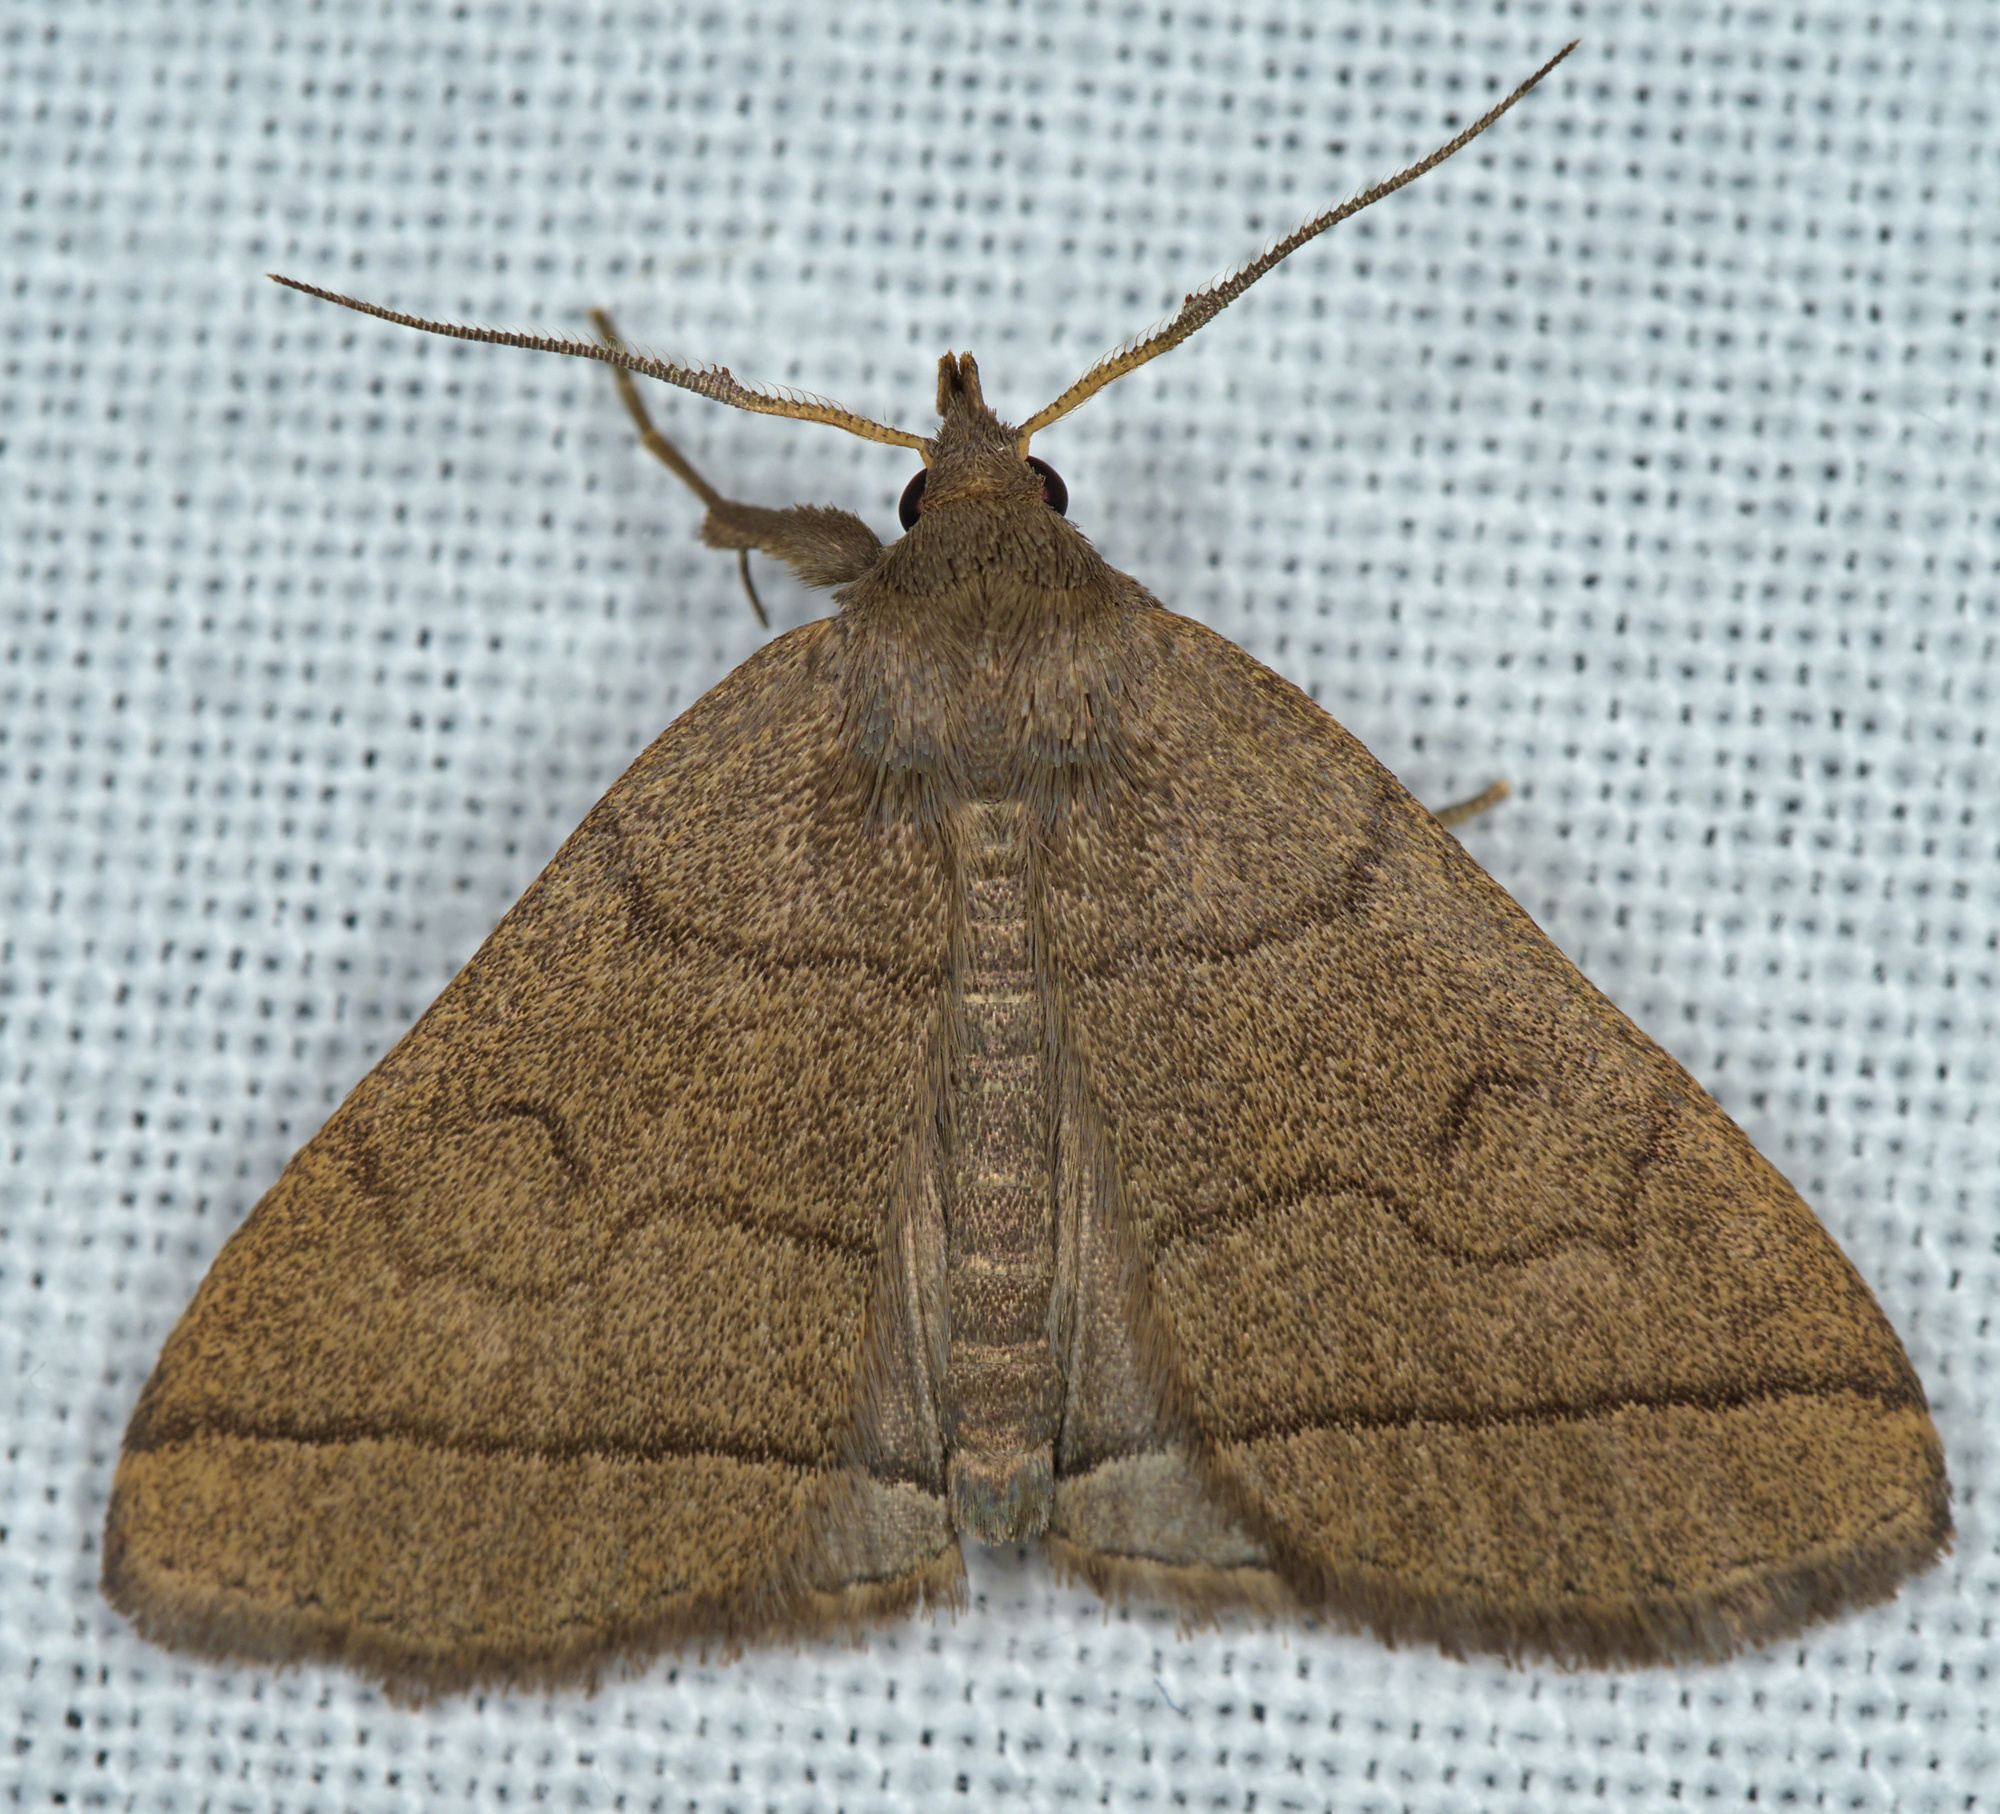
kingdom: Animalia
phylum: Arthropoda
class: Insecta
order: Lepidoptera
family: Erebidae
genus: Herminia
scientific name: Herminia tarsipennalis
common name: Fan-foot
